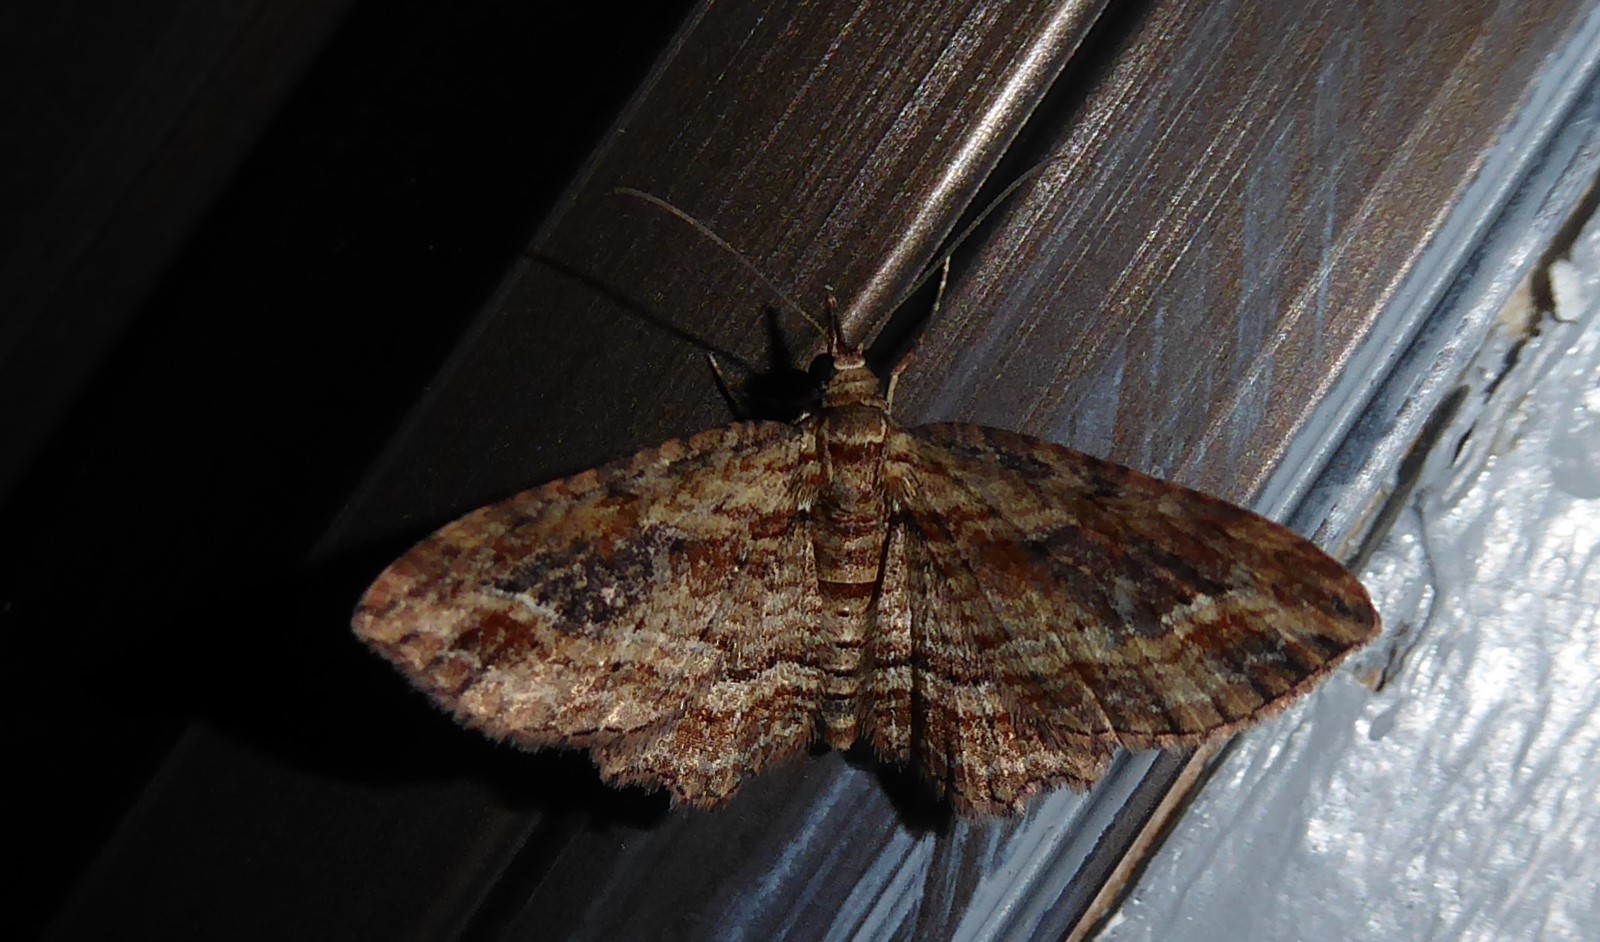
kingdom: Animalia
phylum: Arthropoda
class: Insecta
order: Lepidoptera
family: Geometridae
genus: Chloroclystis
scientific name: Chloroclystis filata
